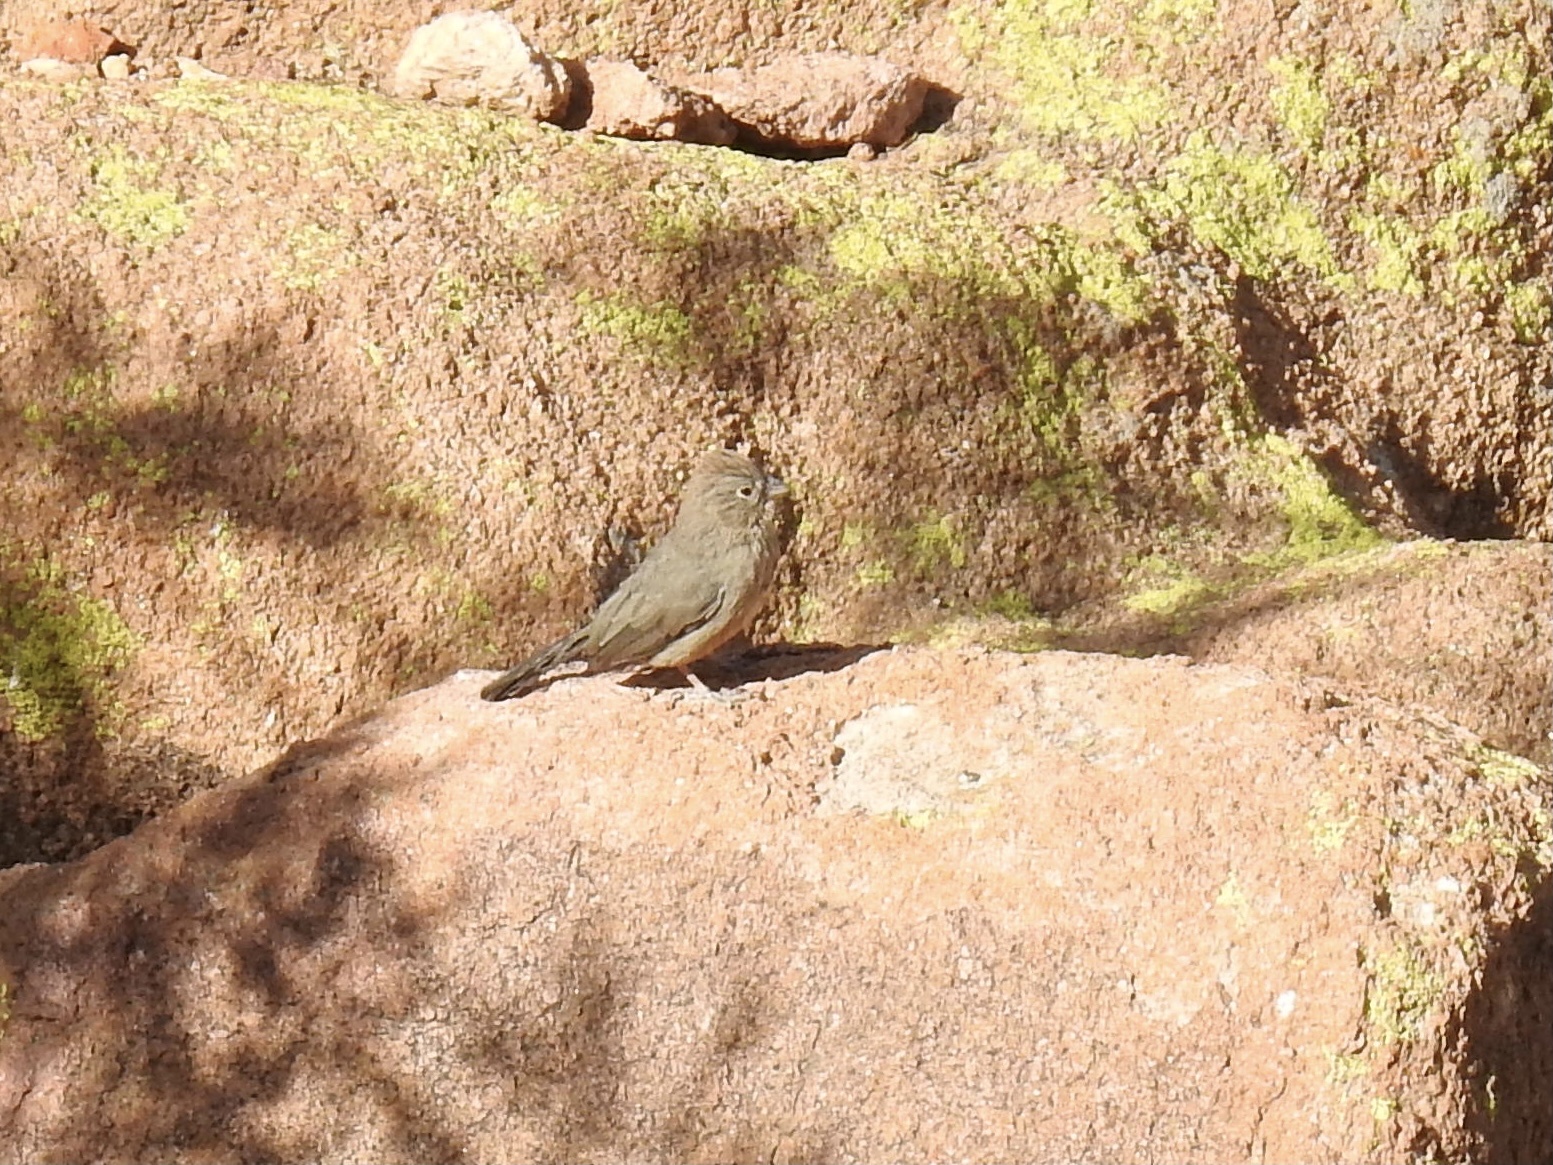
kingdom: Animalia
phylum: Chordata
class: Aves
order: Passeriformes
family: Passerellidae
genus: Melozone
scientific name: Melozone fusca
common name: Canyon towhee
